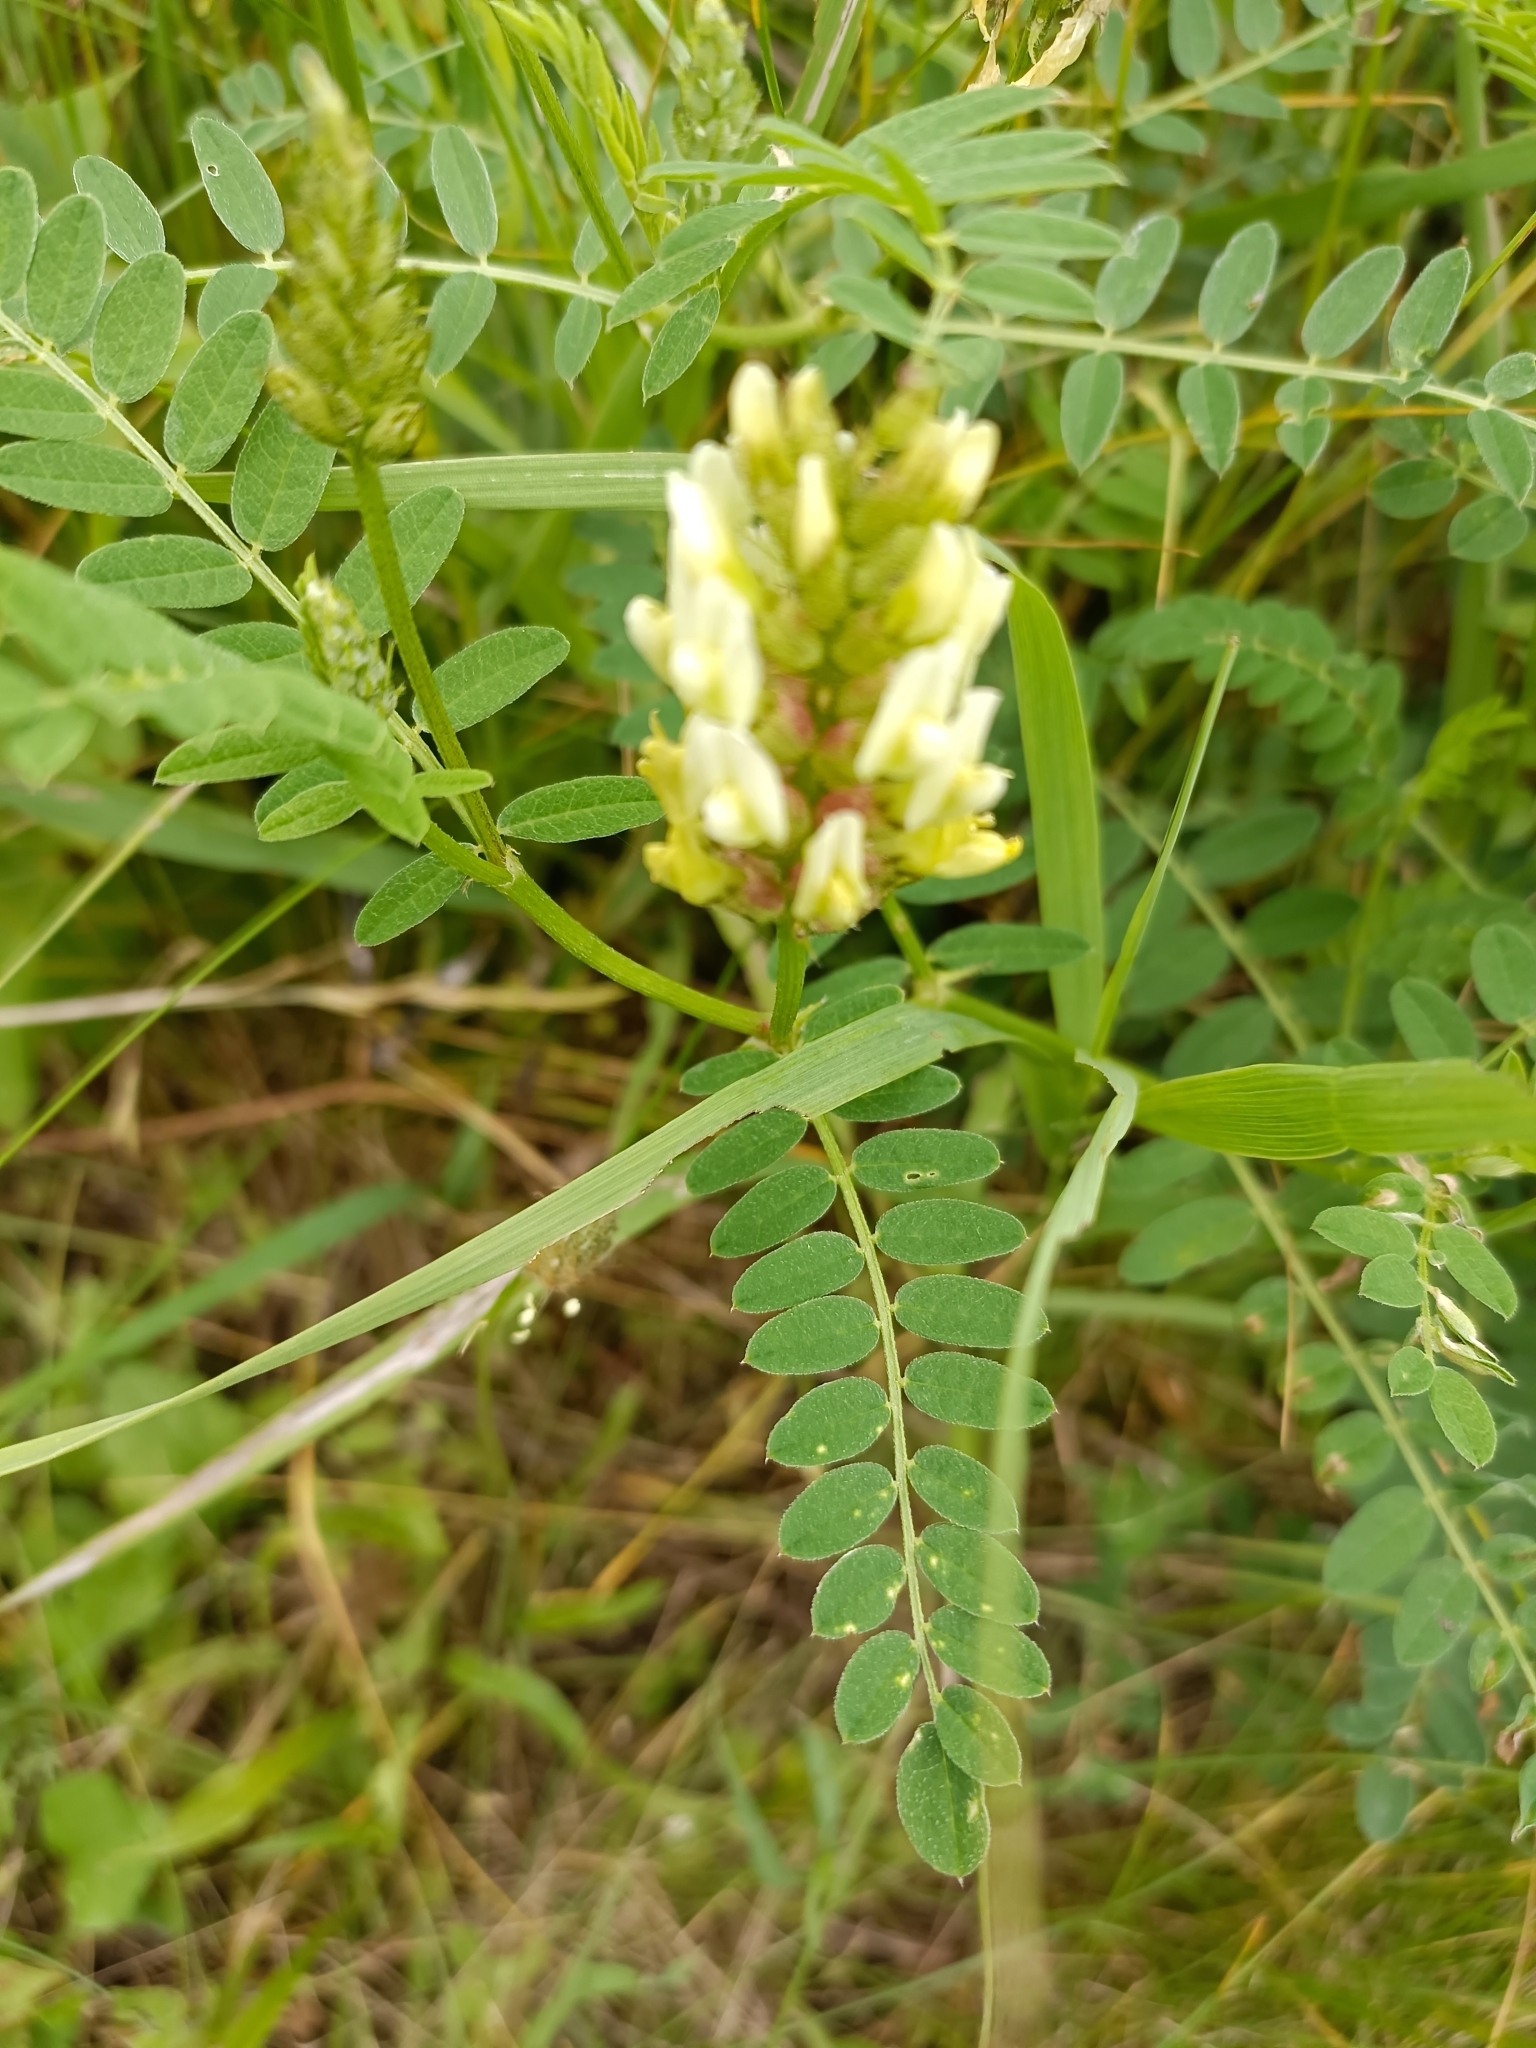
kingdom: Plantae
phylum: Tracheophyta
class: Magnoliopsida
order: Fabales
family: Fabaceae
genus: Astragalus
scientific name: Astragalus cicer
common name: Chick-pea milk-vetch
